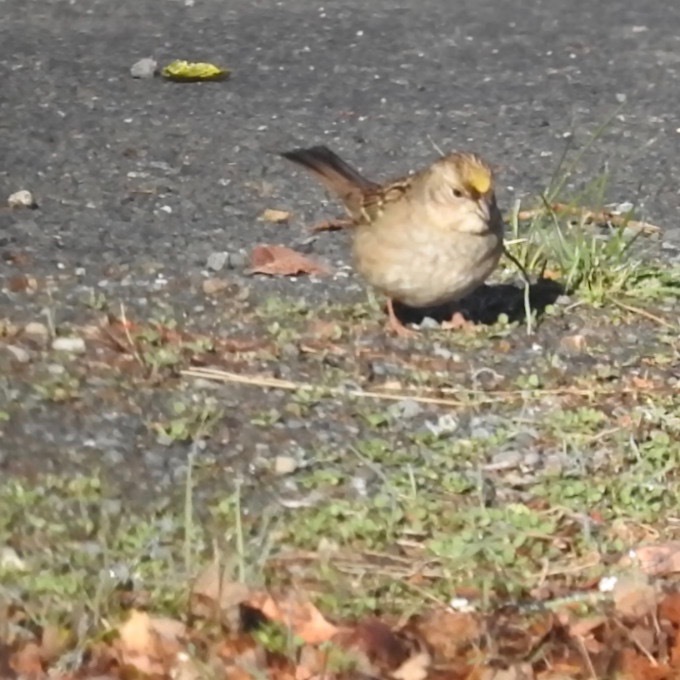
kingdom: Animalia
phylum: Chordata
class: Aves
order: Passeriformes
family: Passerellidae
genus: Zonotrichia
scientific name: Zonotrichia atricapilla
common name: Golden-crowned sparrow
